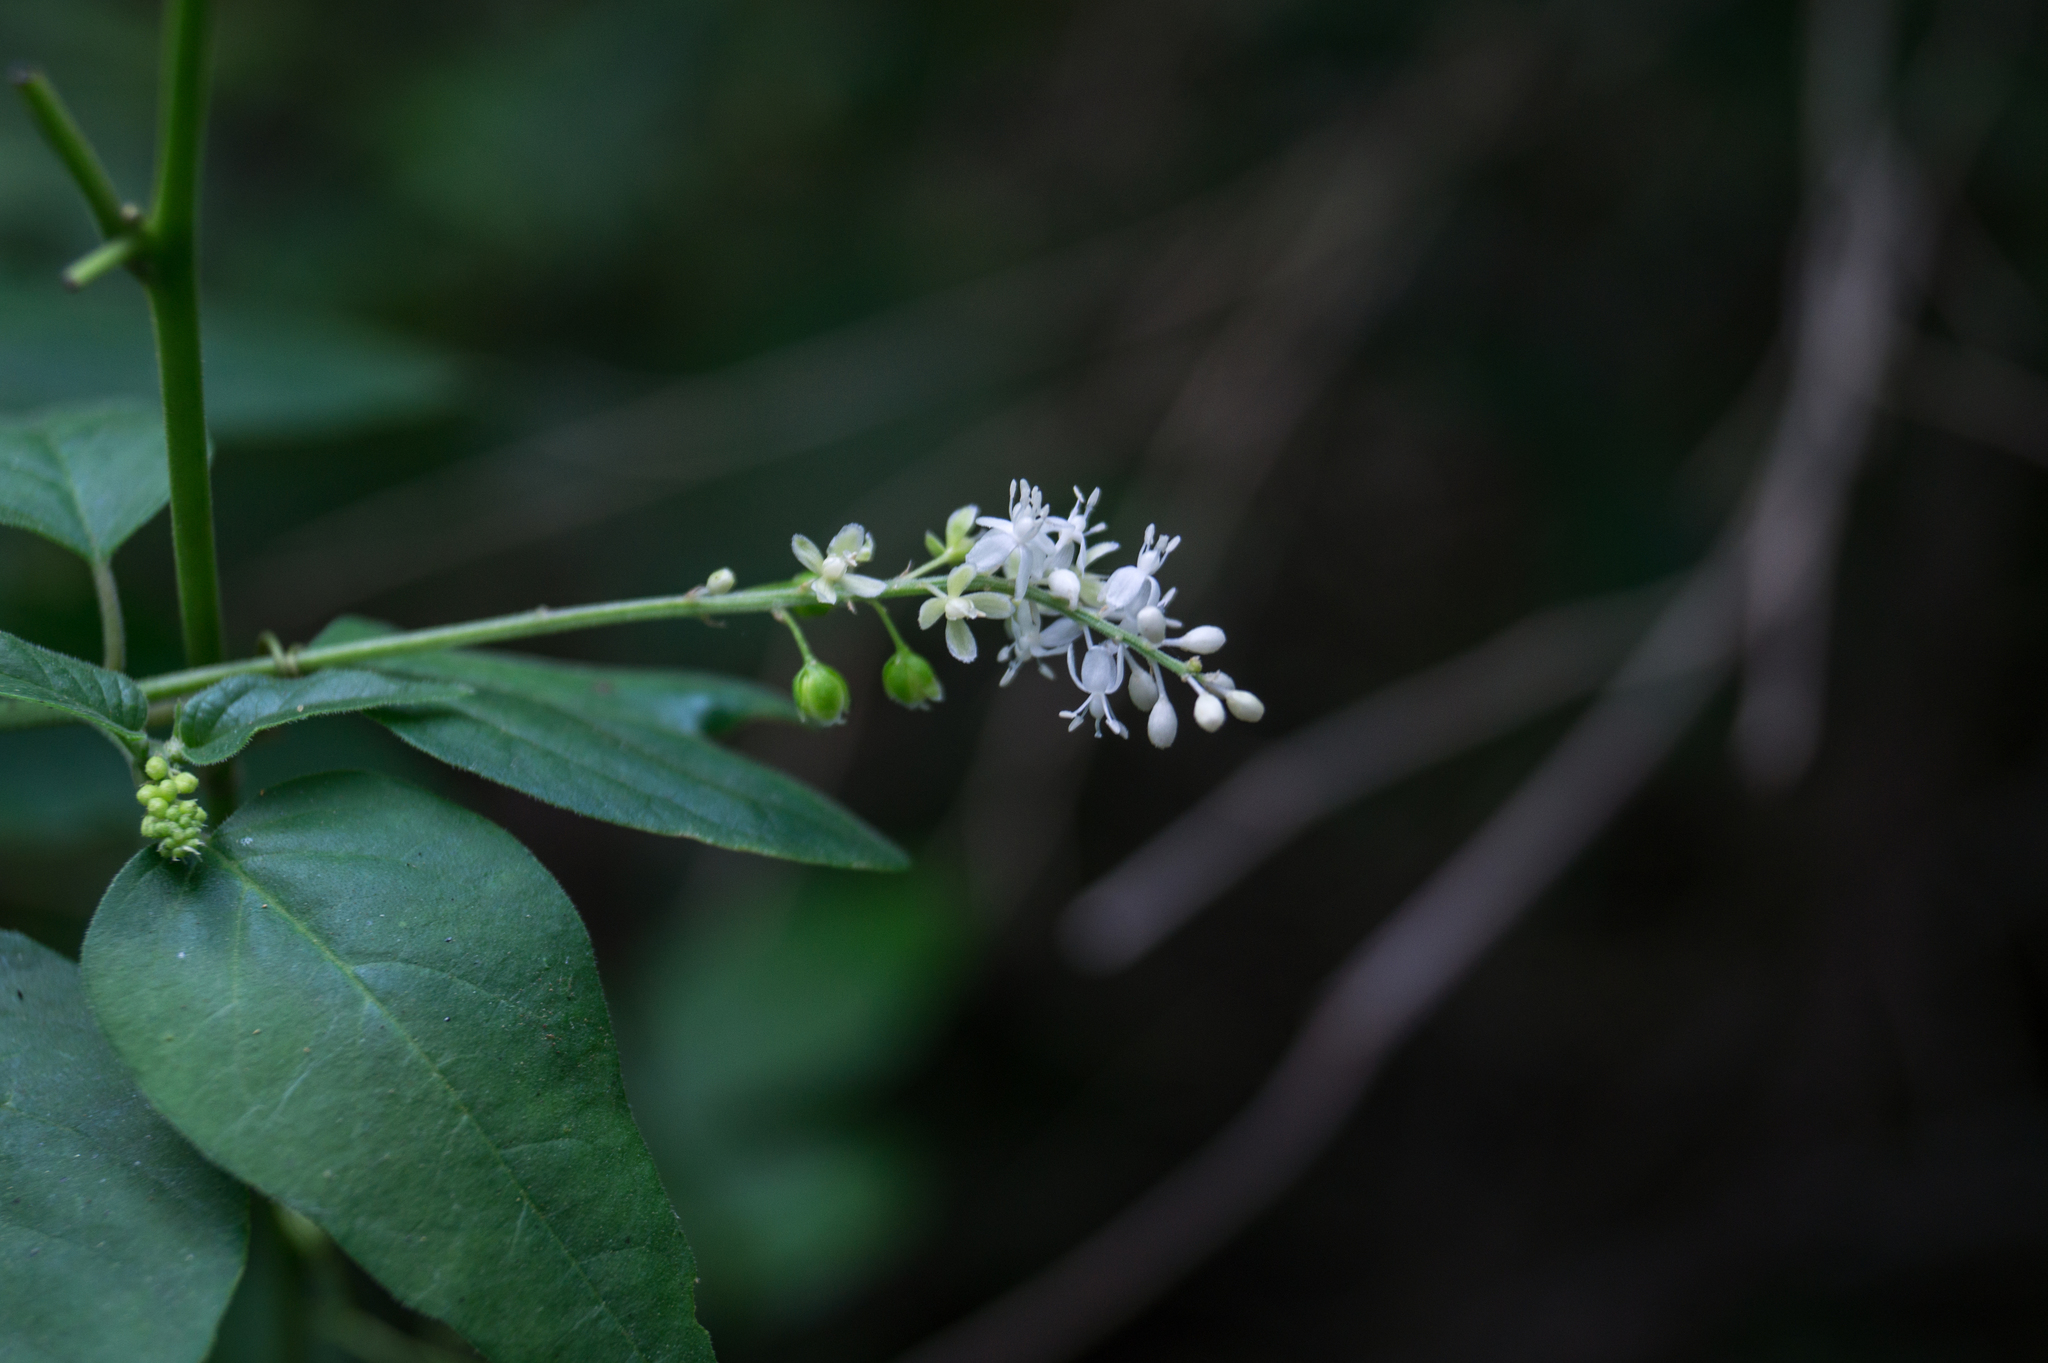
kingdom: Plantae
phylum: Tracheophyta
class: Magnoliopsida
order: Caryophyllales
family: Phytolaccaceae
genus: Rivina
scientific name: Rivina humilis
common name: Rougeplant
